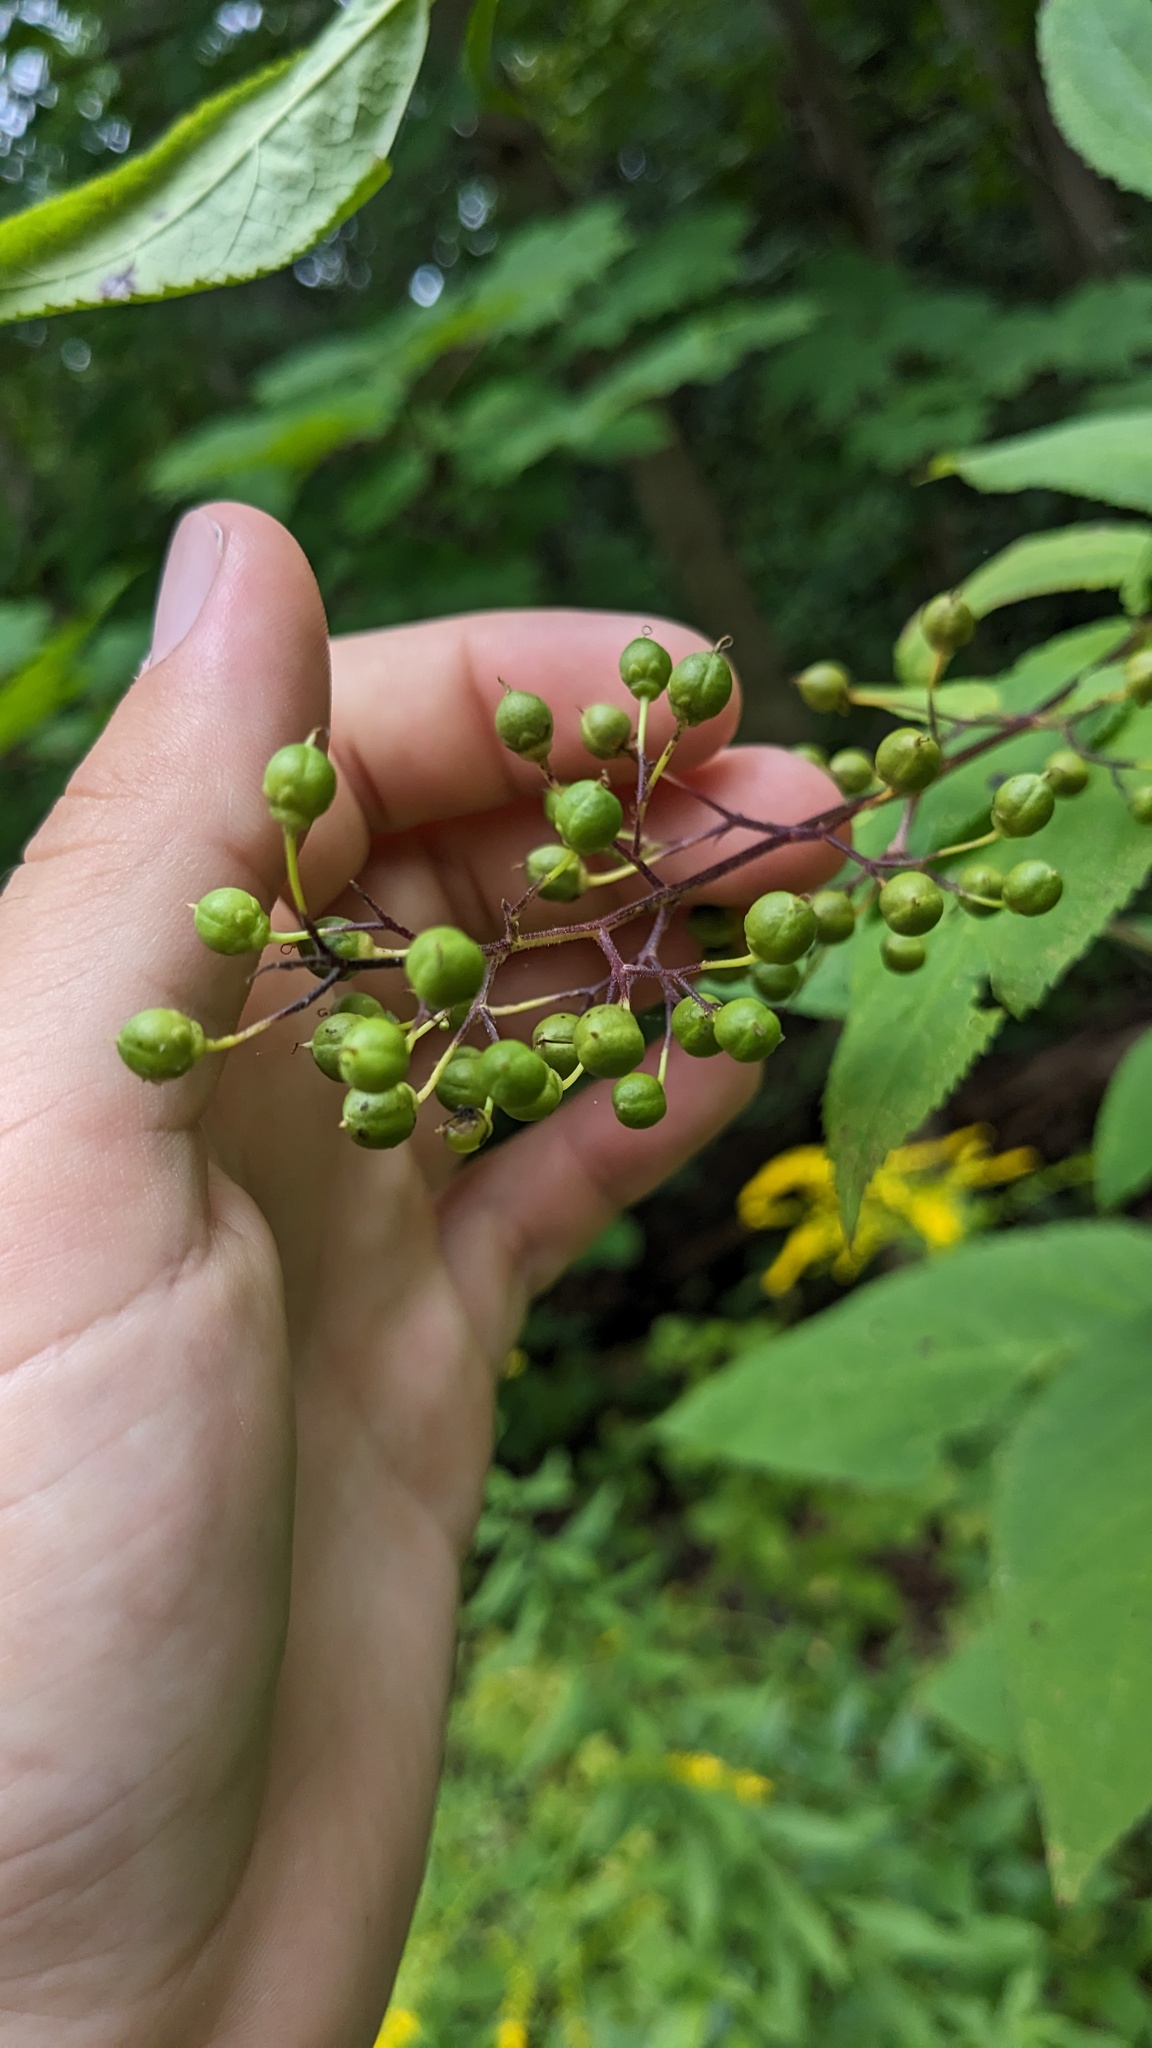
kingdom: Plantae
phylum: Tracheophyta
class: Magnoliopsida
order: Lamiales
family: Scrophulariaceae
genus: Scrophularia
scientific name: Scrophularia marilandica
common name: Eastern figwort
